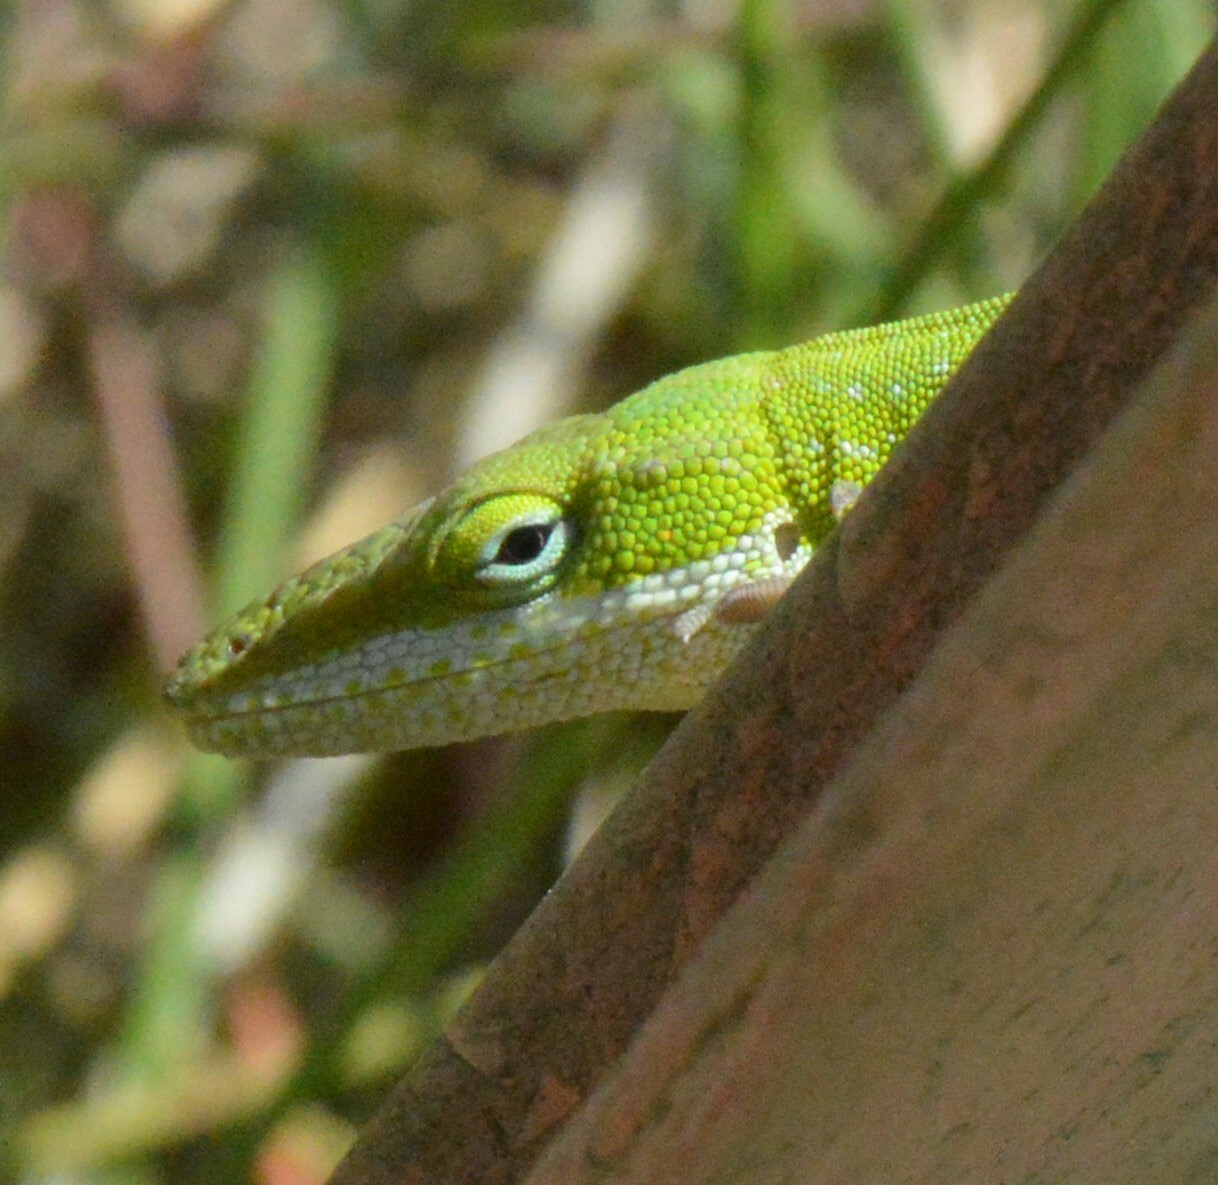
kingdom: Animalia
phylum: Chordata
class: Squamata
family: Dactyloidae
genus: Anolis
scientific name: Anolis carolinensis
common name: Green anole
